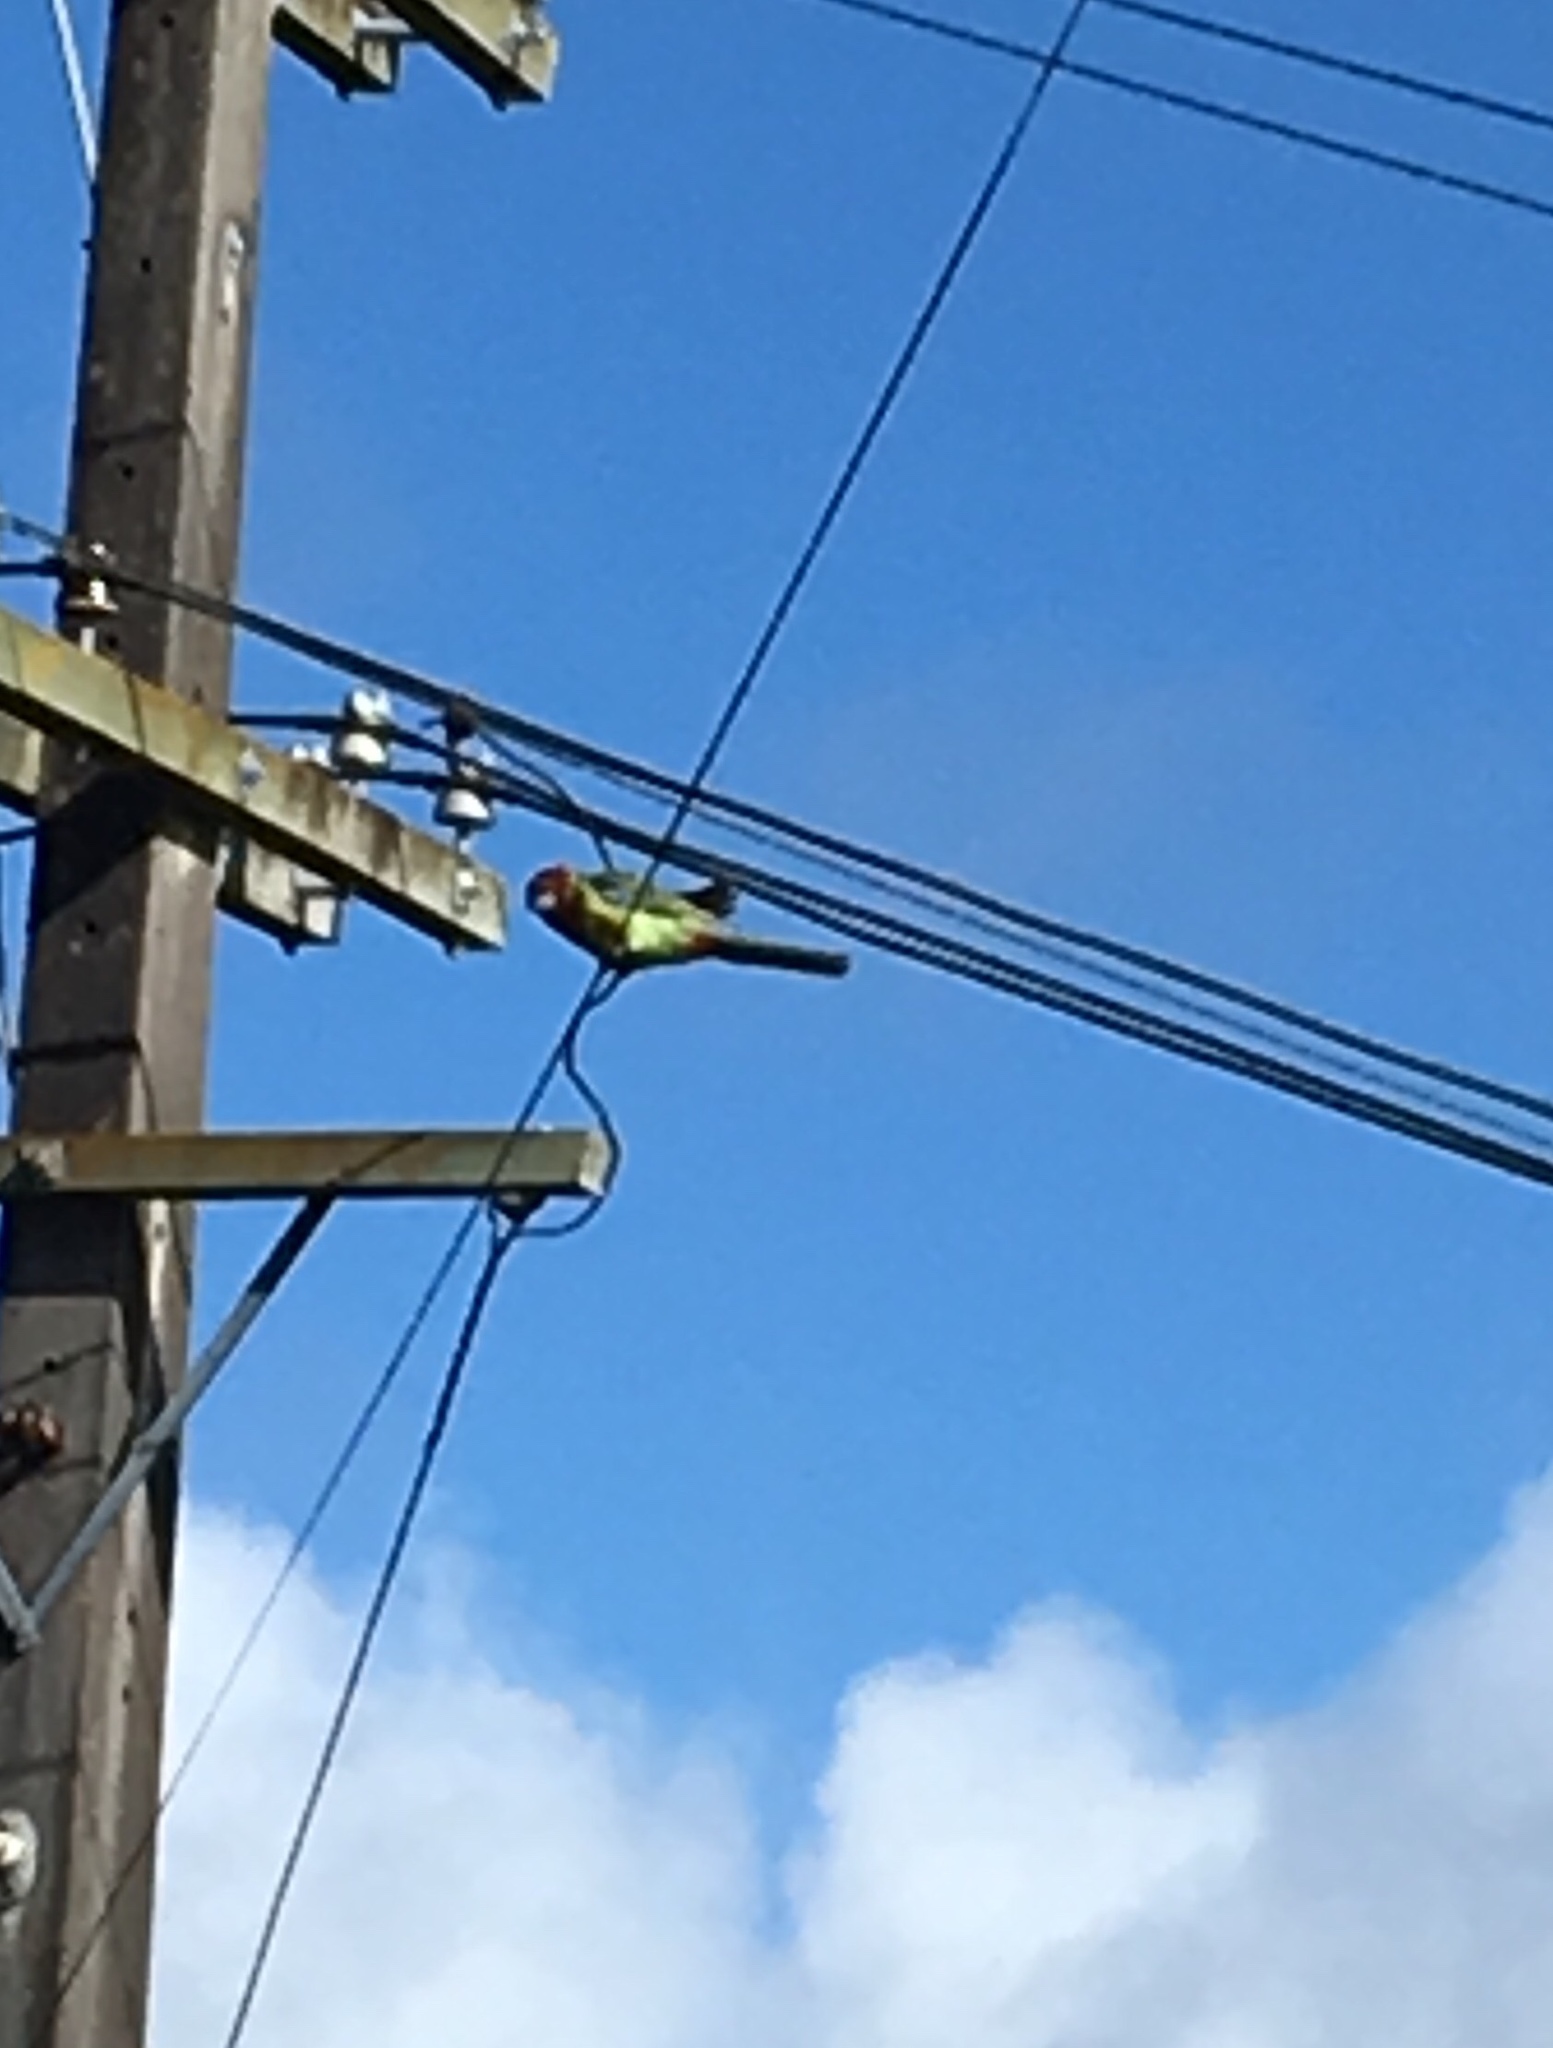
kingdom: Animalia
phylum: Chordata
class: Aves
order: Psittaciformes
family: Psittacidae
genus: Platycercus
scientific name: Platycercus eximius
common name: Eastern rosella
